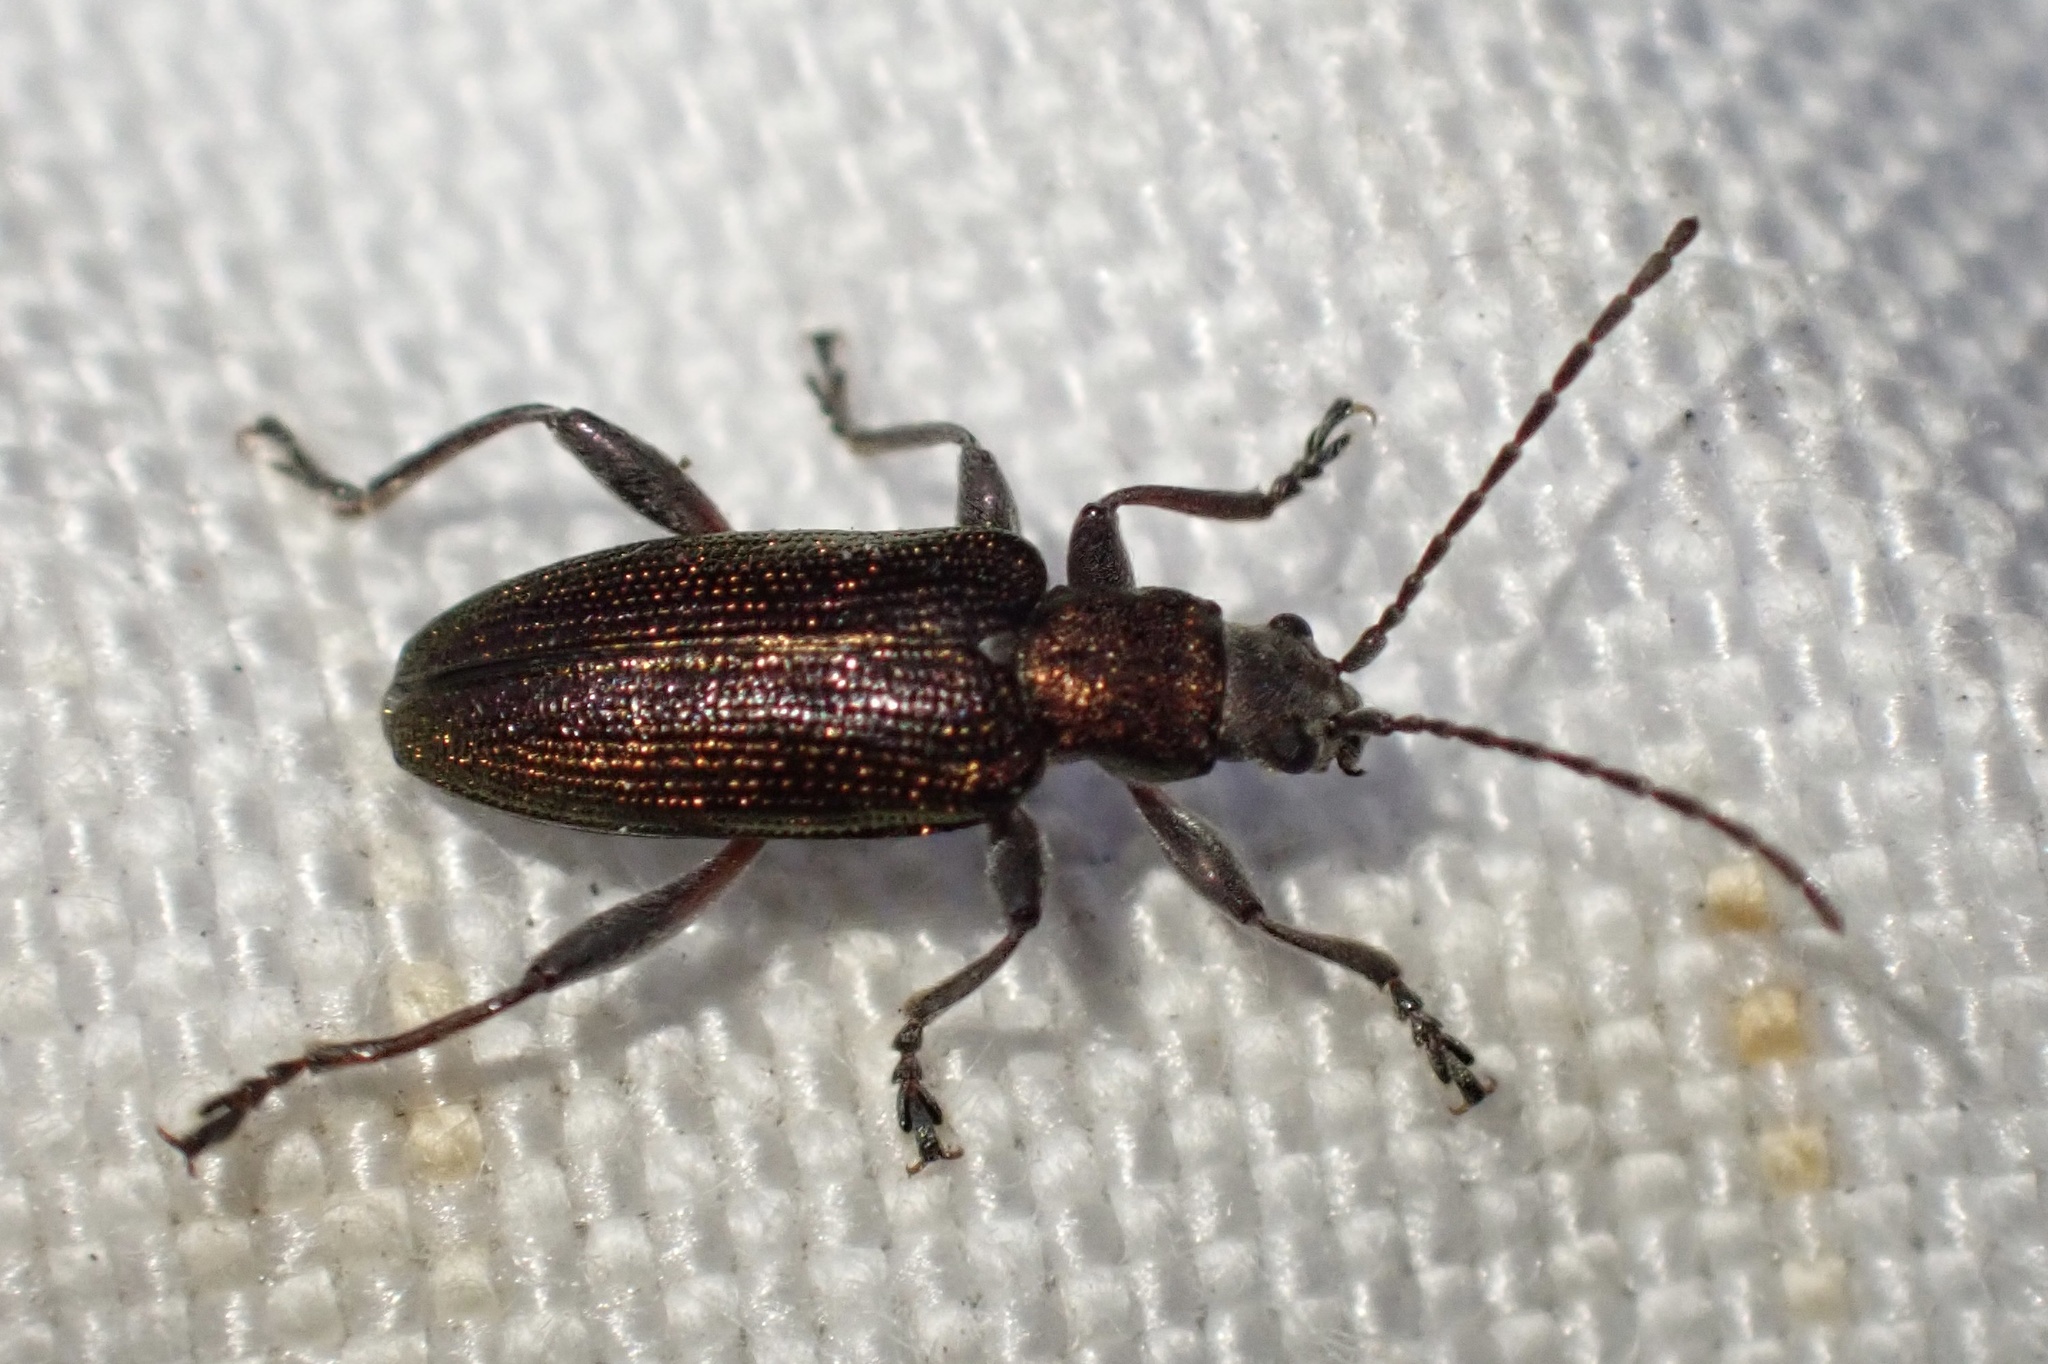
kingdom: Animalia
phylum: Arthropoda
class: Insecta
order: Coleoptera
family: Chrysomelidae
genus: Donacia
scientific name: Donacia semicuprea
